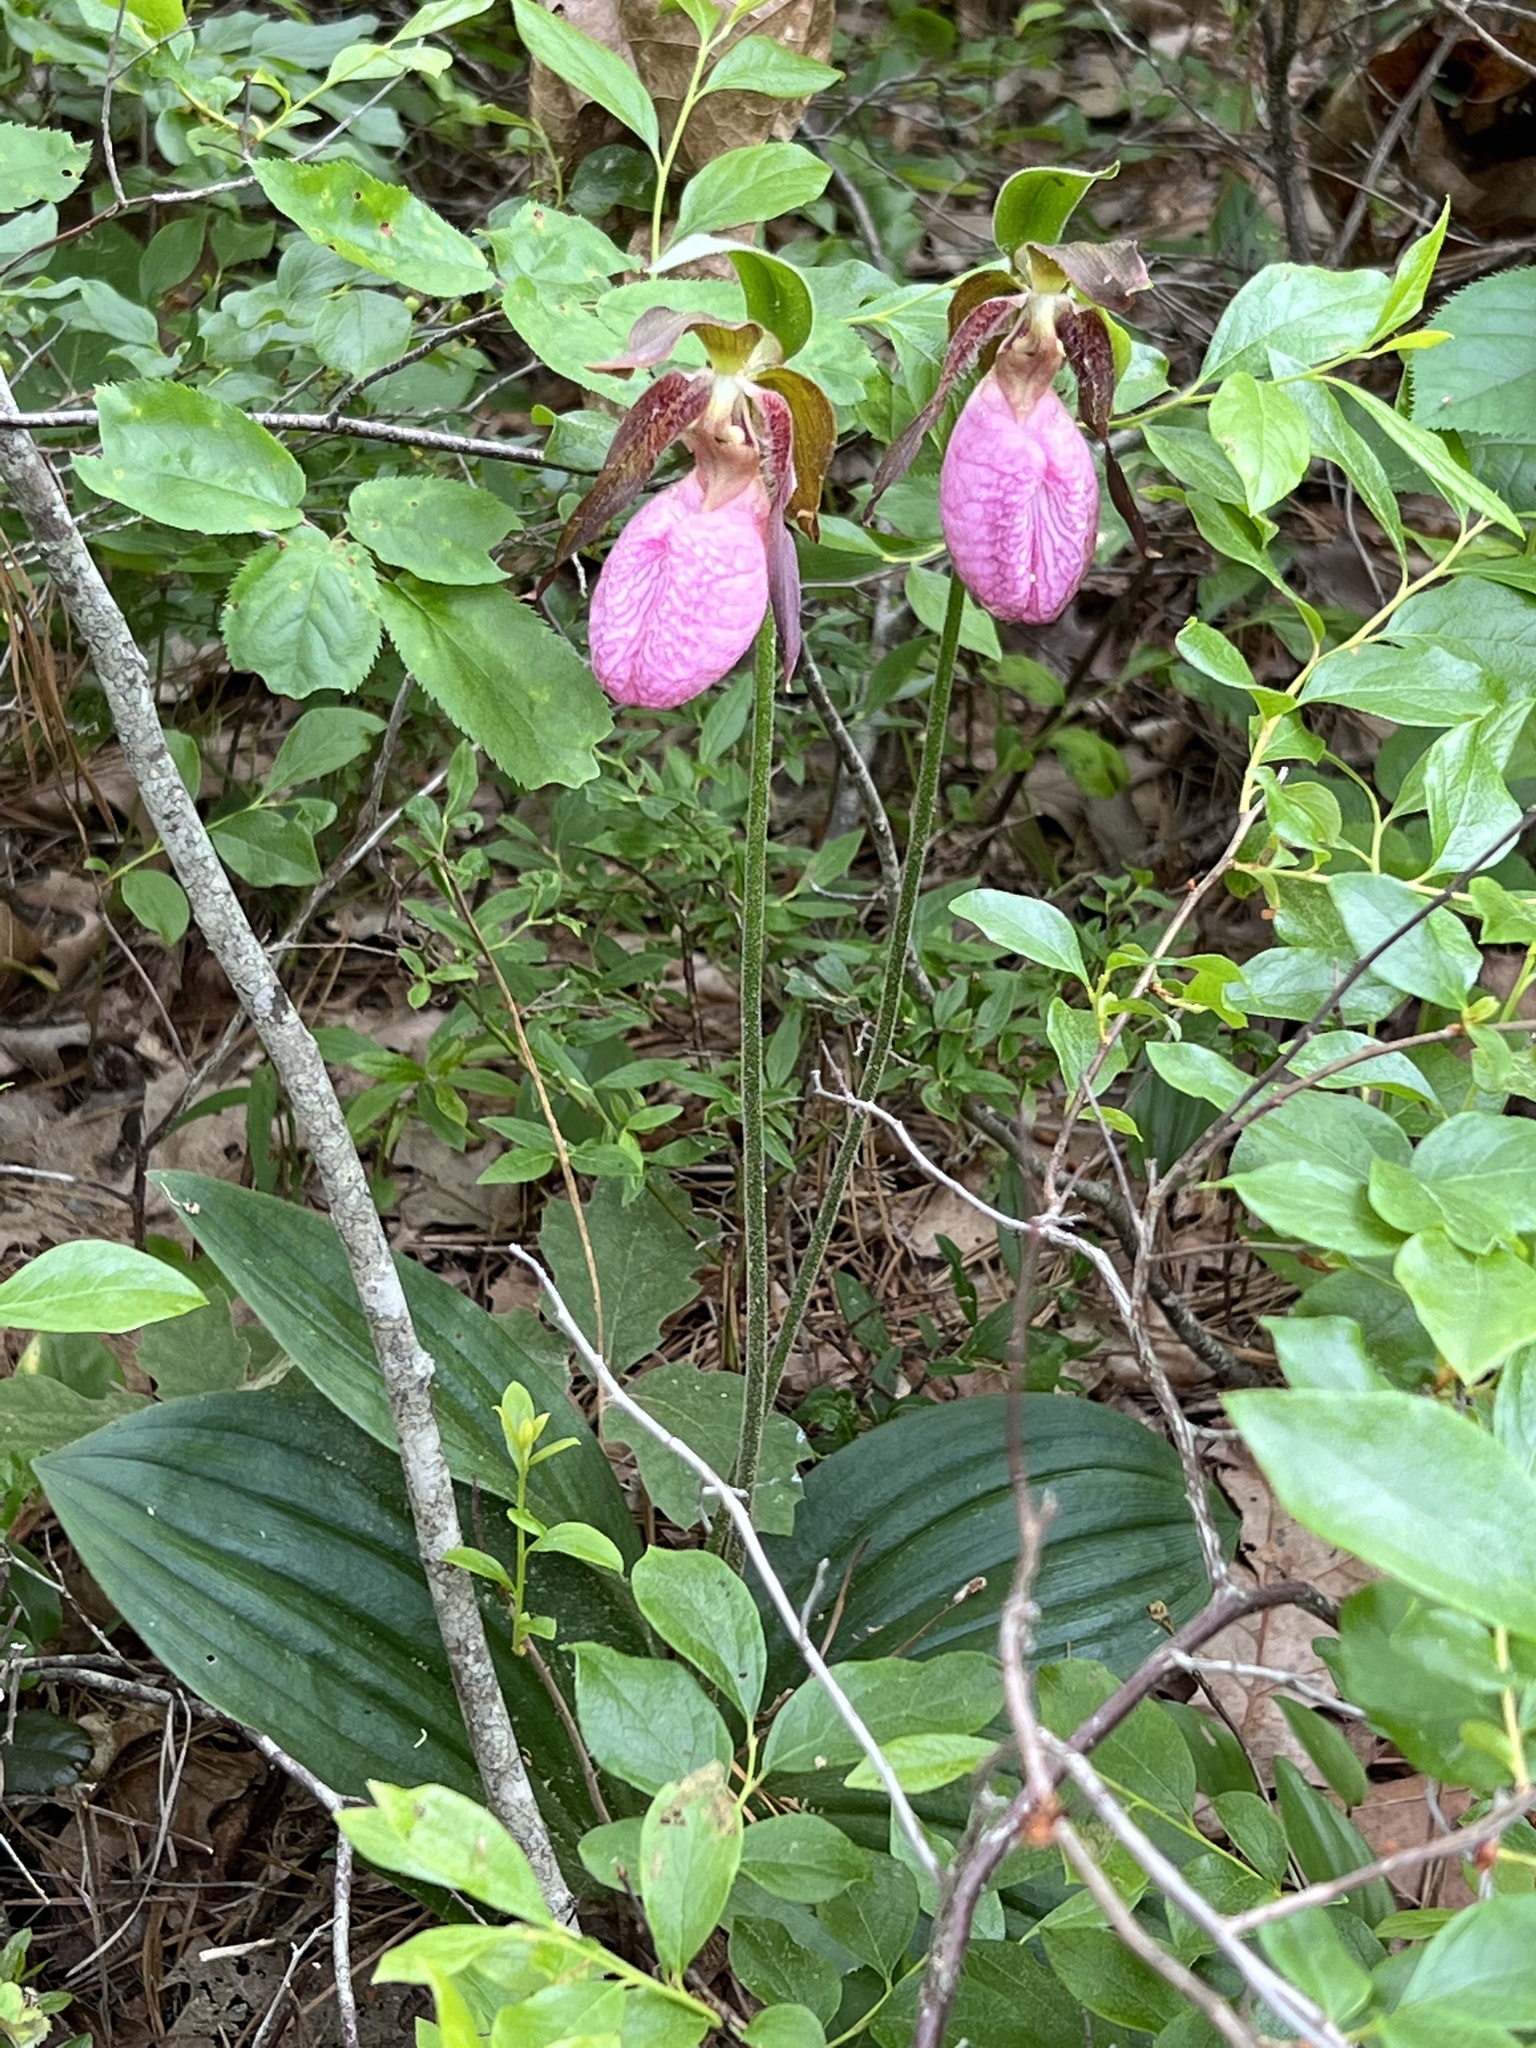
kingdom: Plantae
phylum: Tracheophyta
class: Liliopsida
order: Asparagales
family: Orchidaceae
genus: Cypripedium
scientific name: Cypripedium acaule
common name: Pink lady's-slipper
